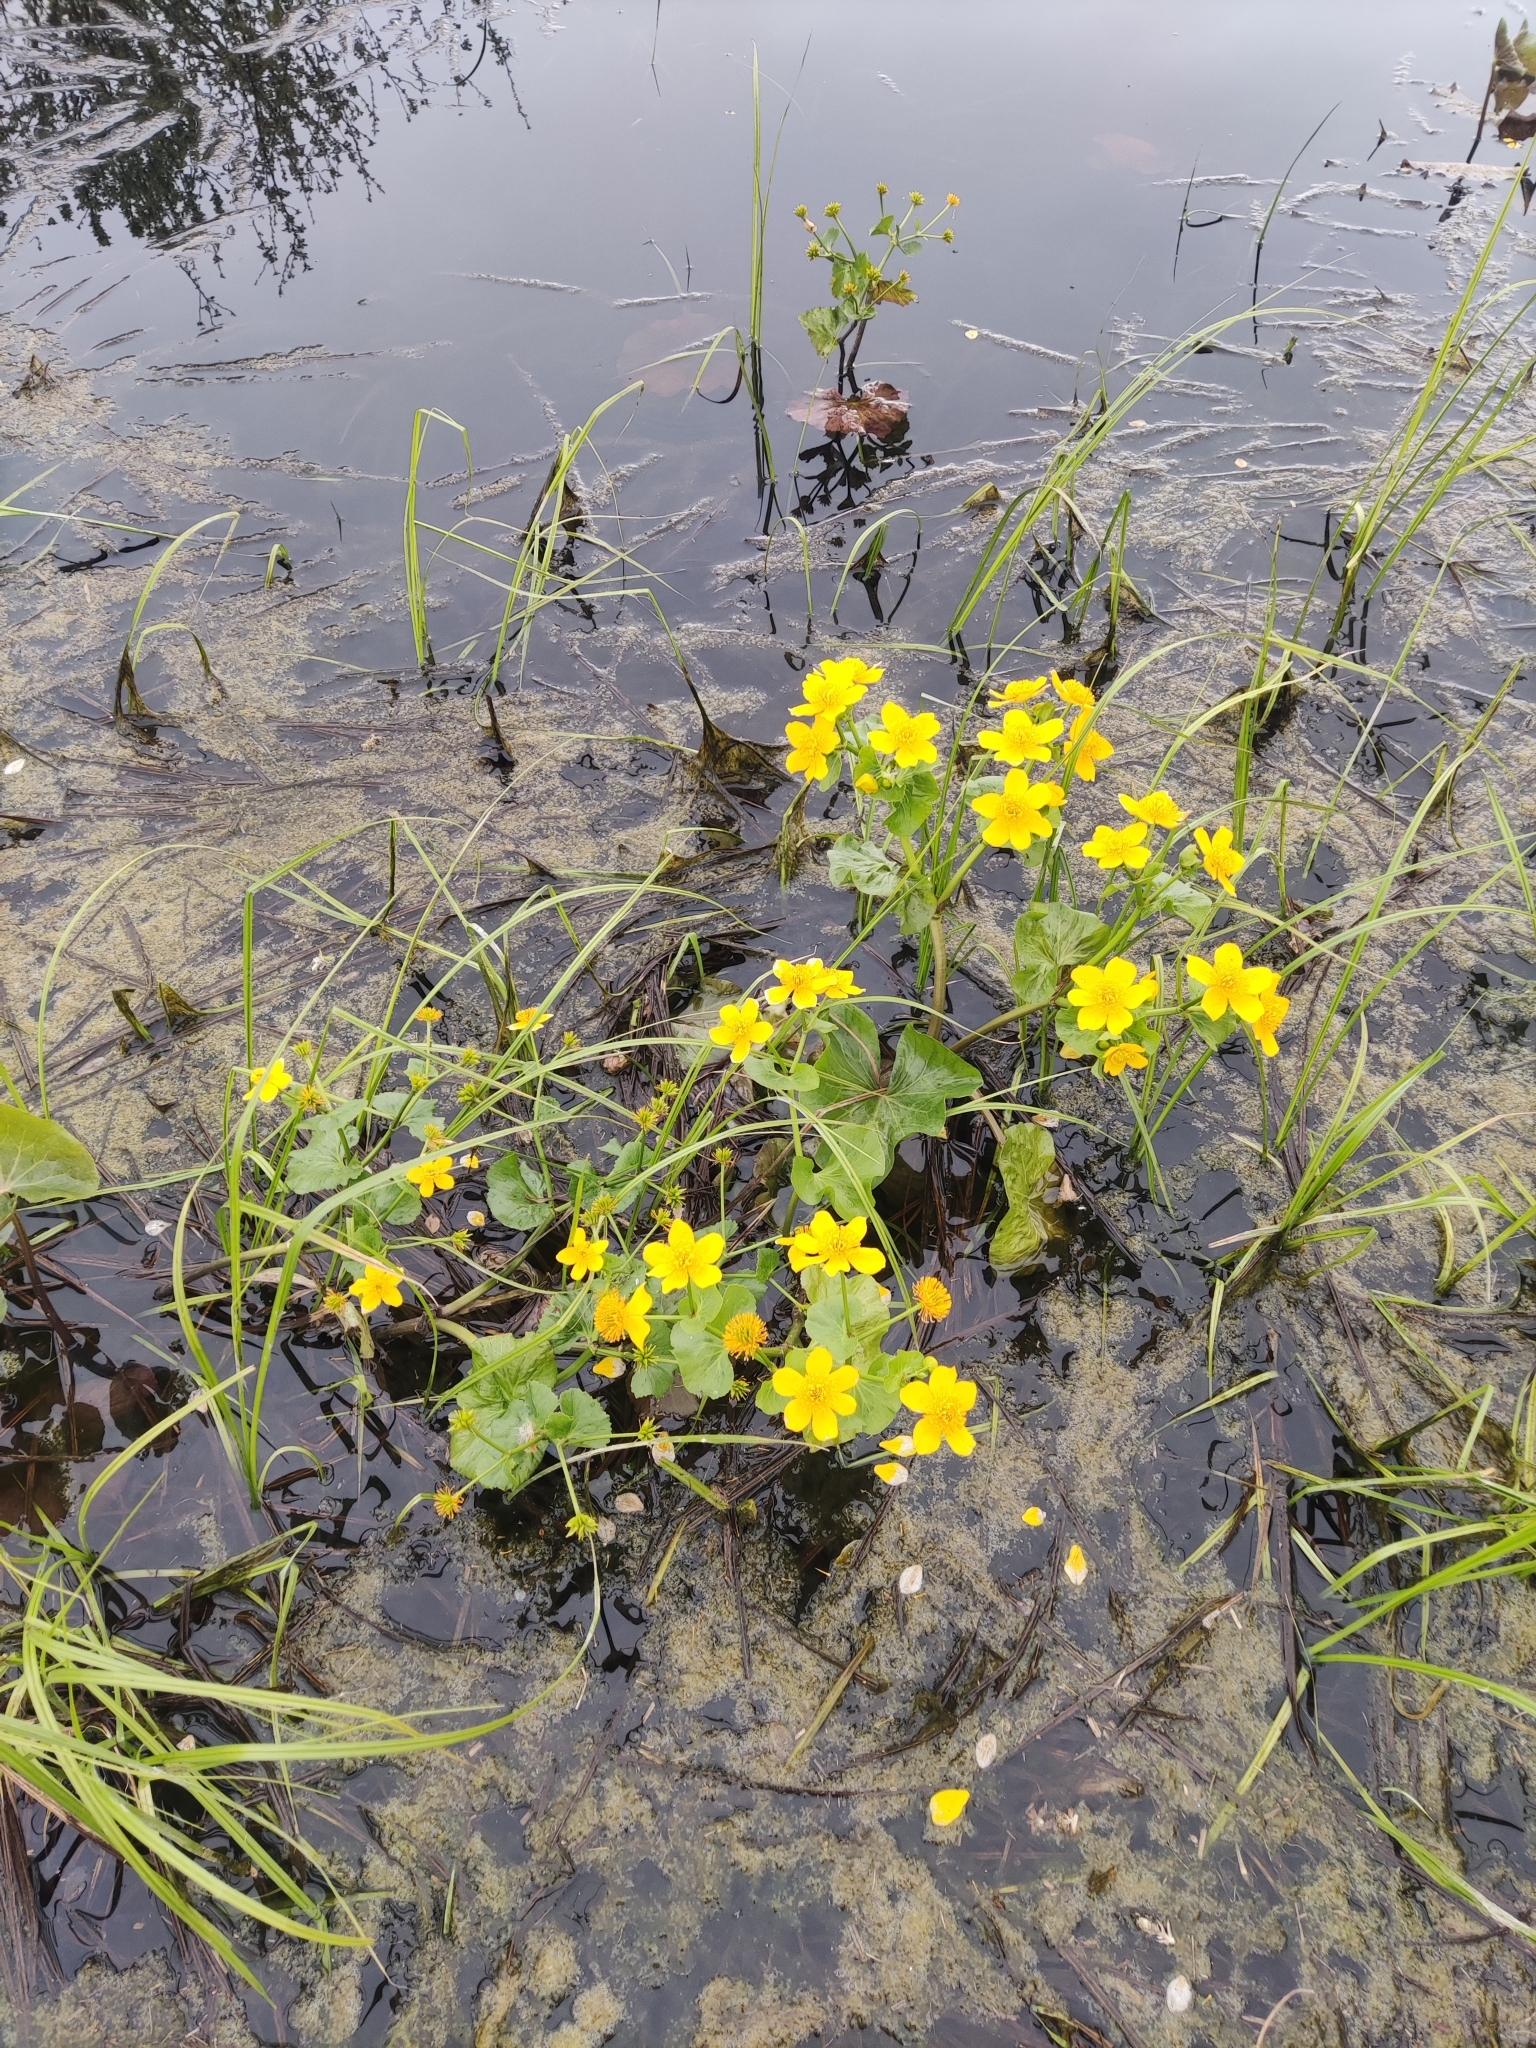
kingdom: Plantae
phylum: Tracheophyta
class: Magnoliopsida
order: Ranunculales
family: Ranunculaceae
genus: Caltha
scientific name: Caltha palustris
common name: Marsh marigold
